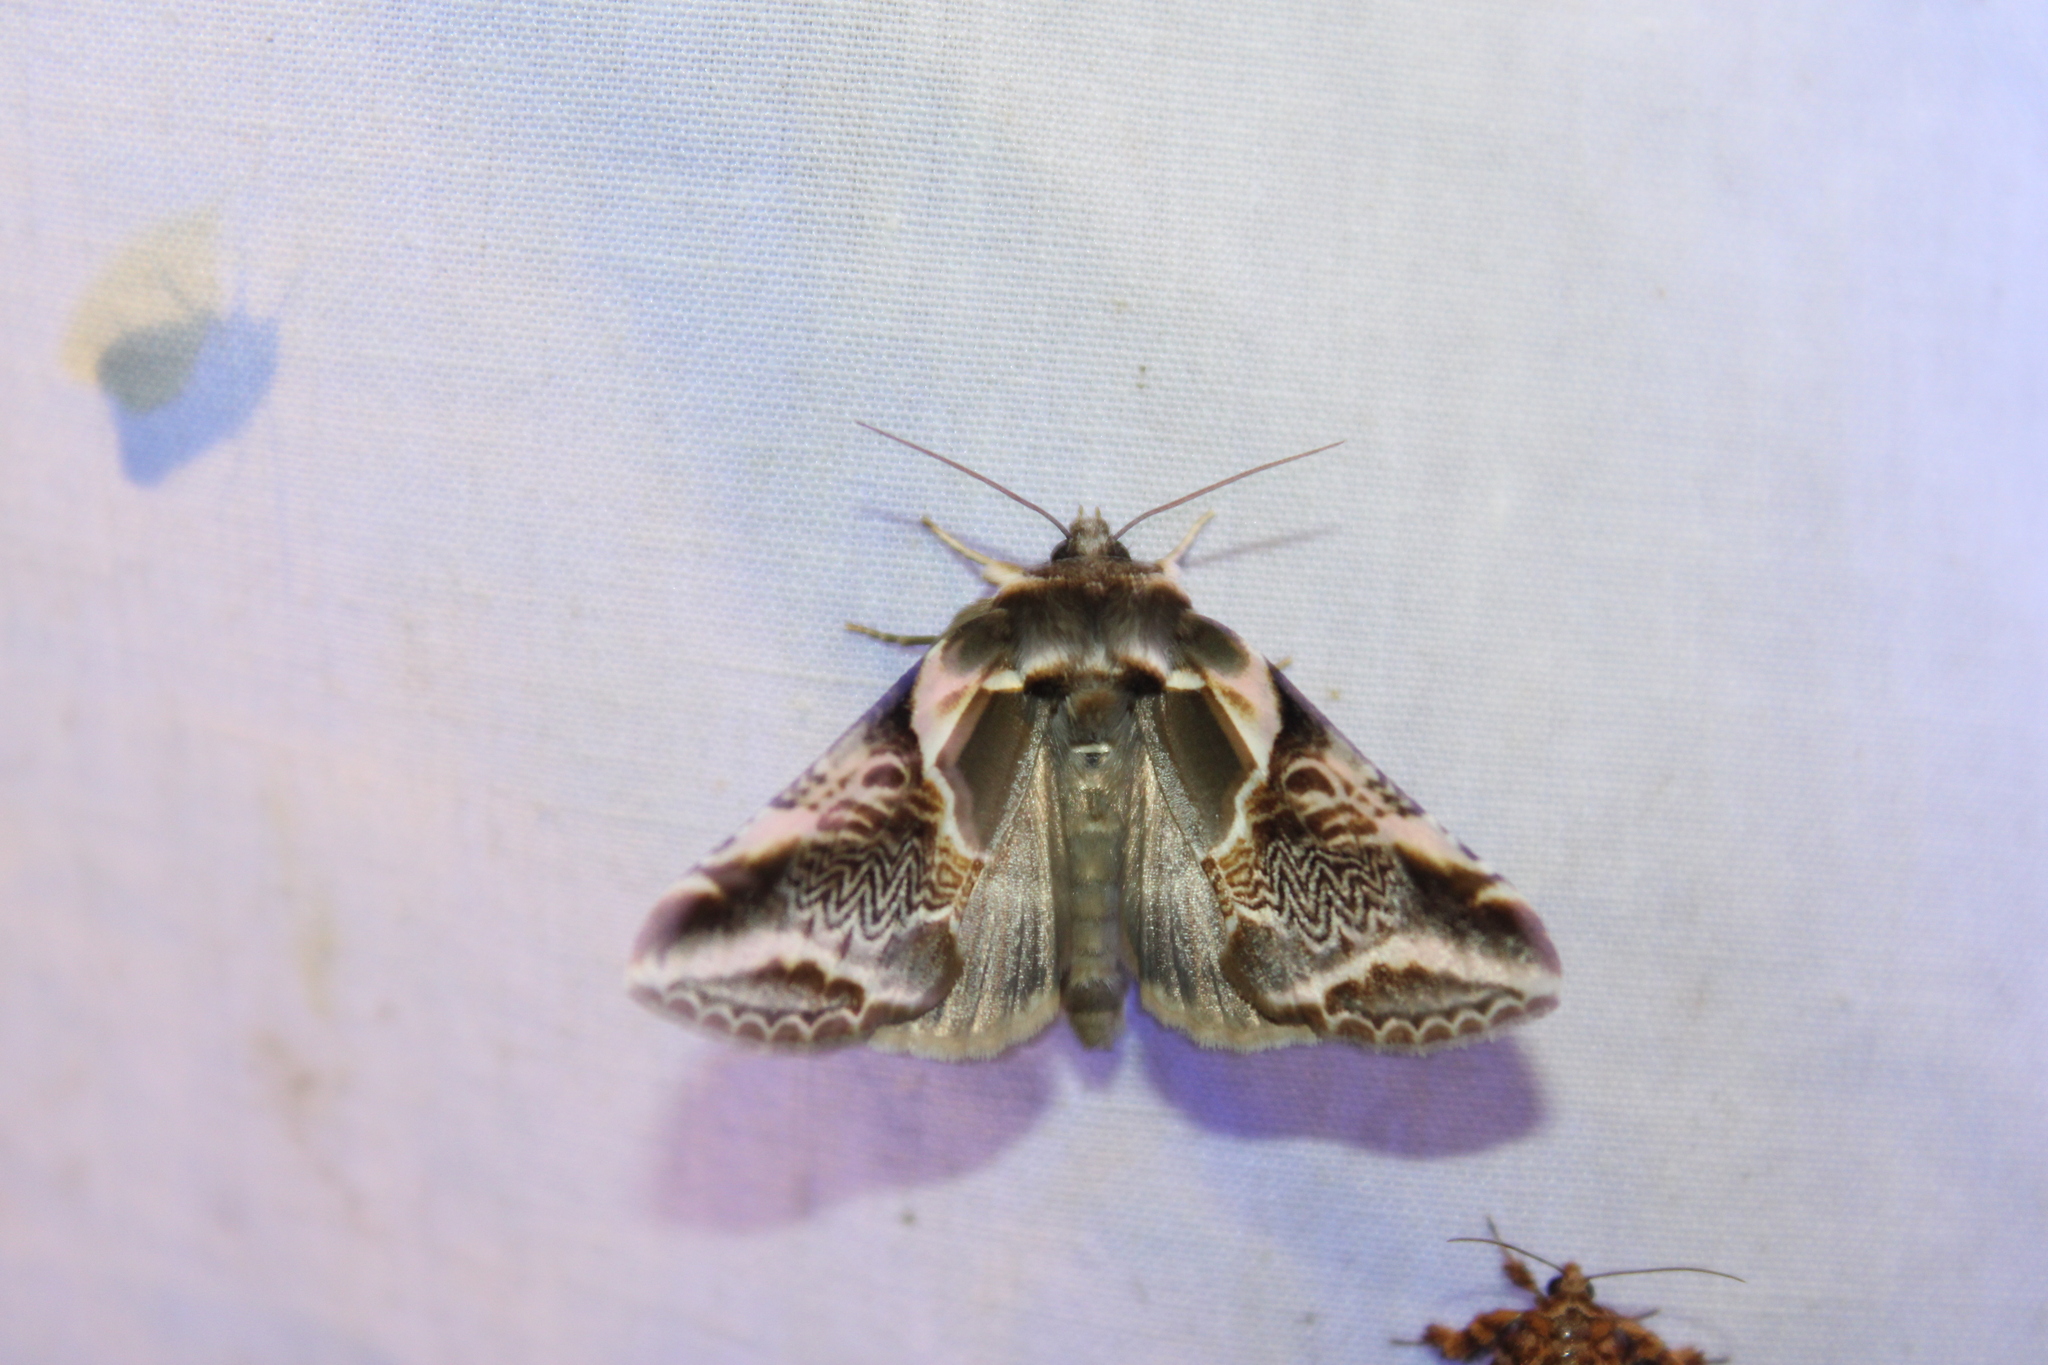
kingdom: Animalia
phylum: Arthropoda
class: Insecta
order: Lepidoptera
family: Drepanidae
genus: Habrosyne
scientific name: Habrosyne scripta
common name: Lettered habrosyne moth
